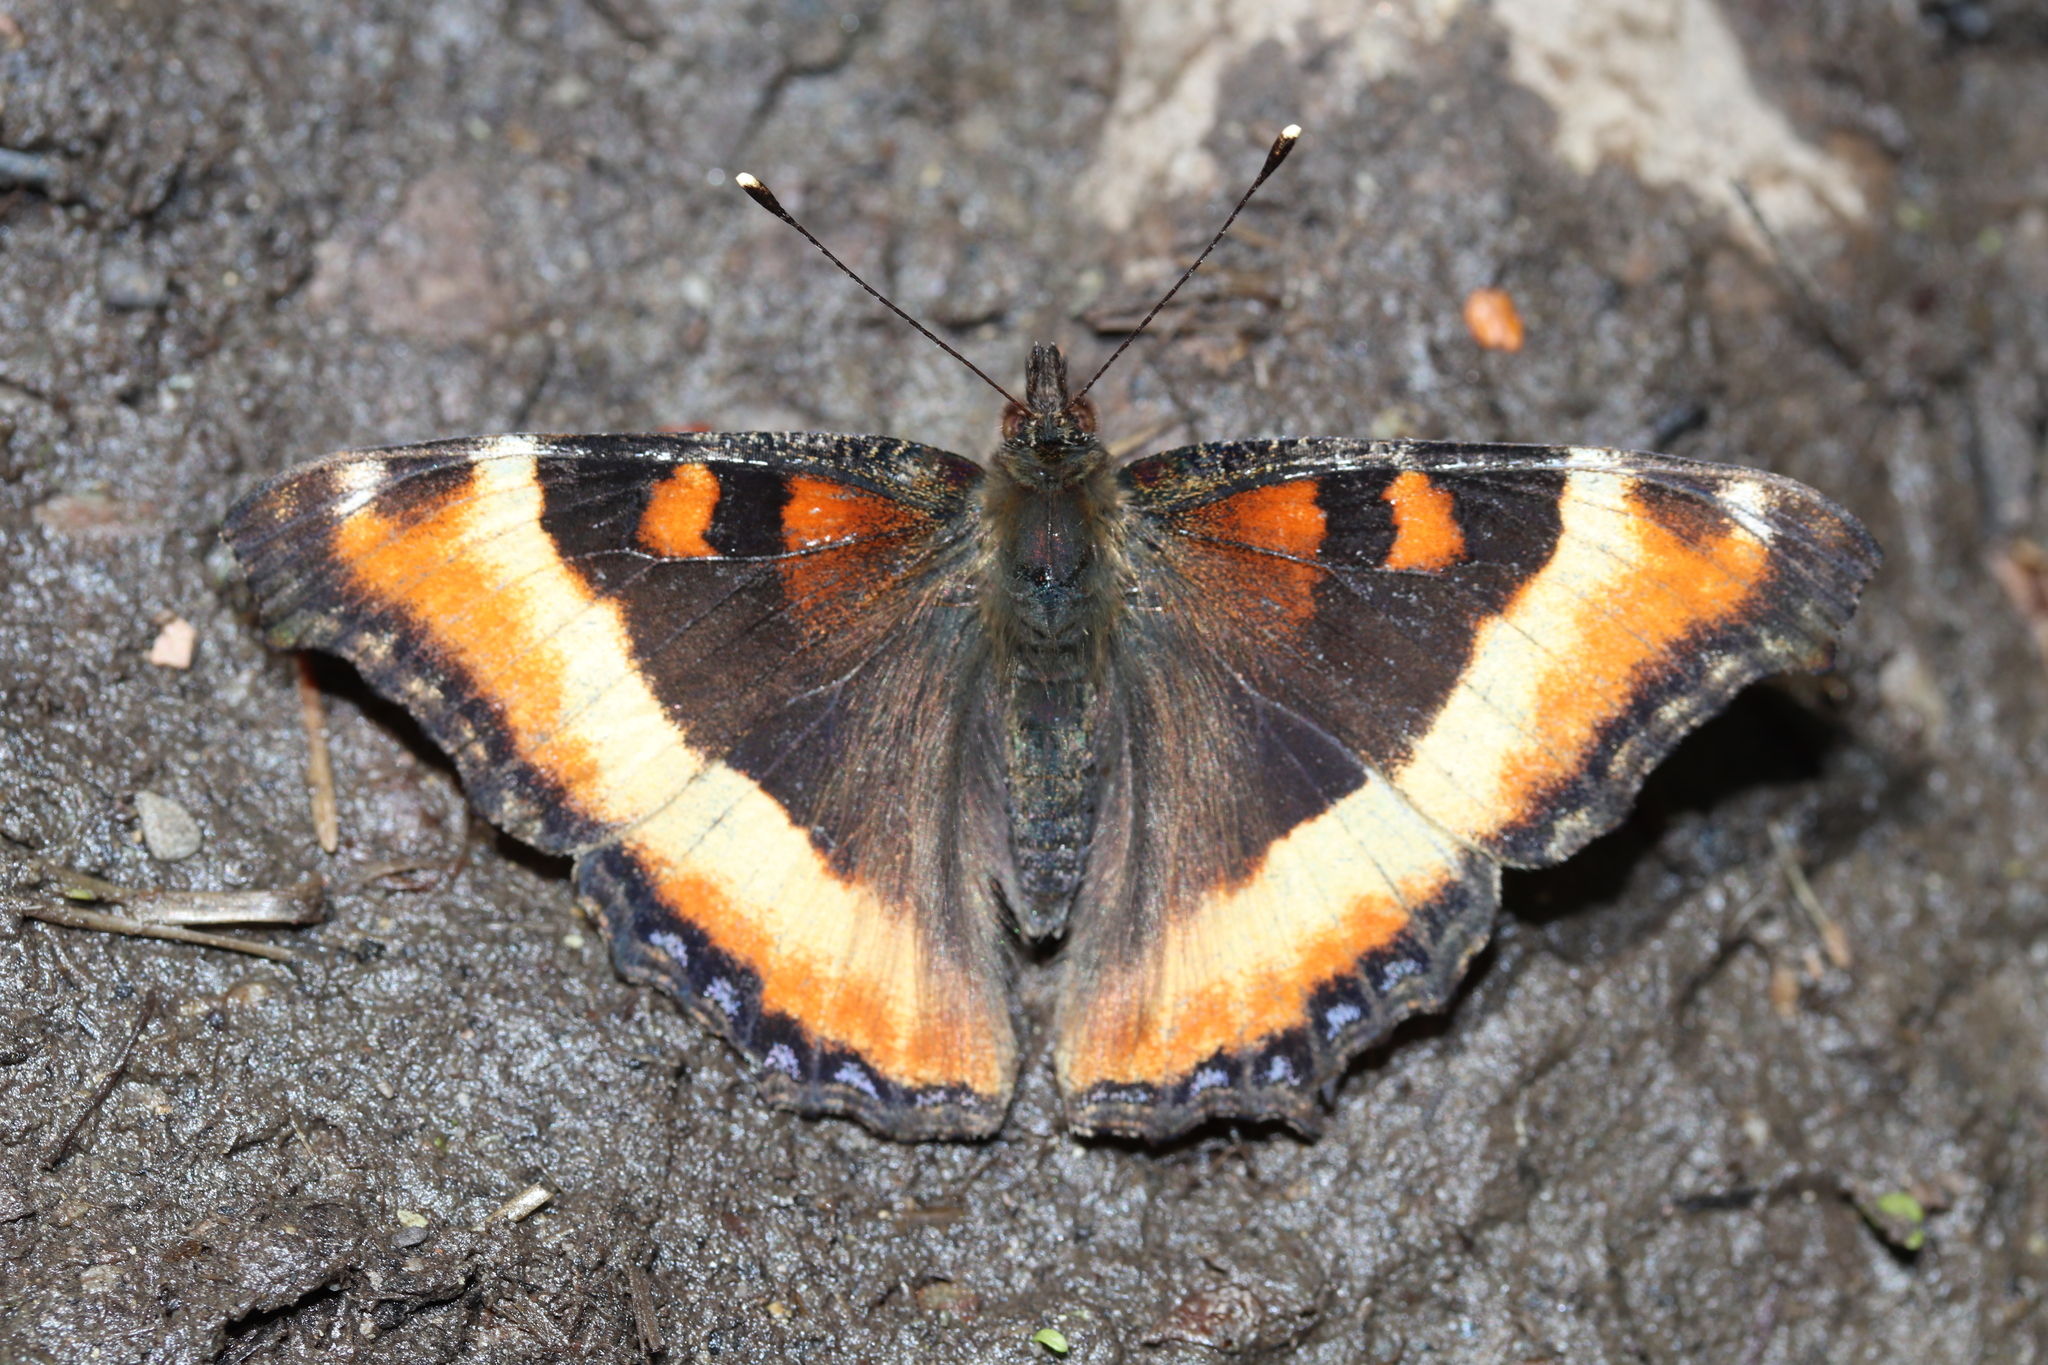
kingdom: Animalia
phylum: Arthropoda
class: Insecta
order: Lepidoptera
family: Nymphalidae
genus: Aglais
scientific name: Aglais milberti
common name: Milbert's tortoiseshell
